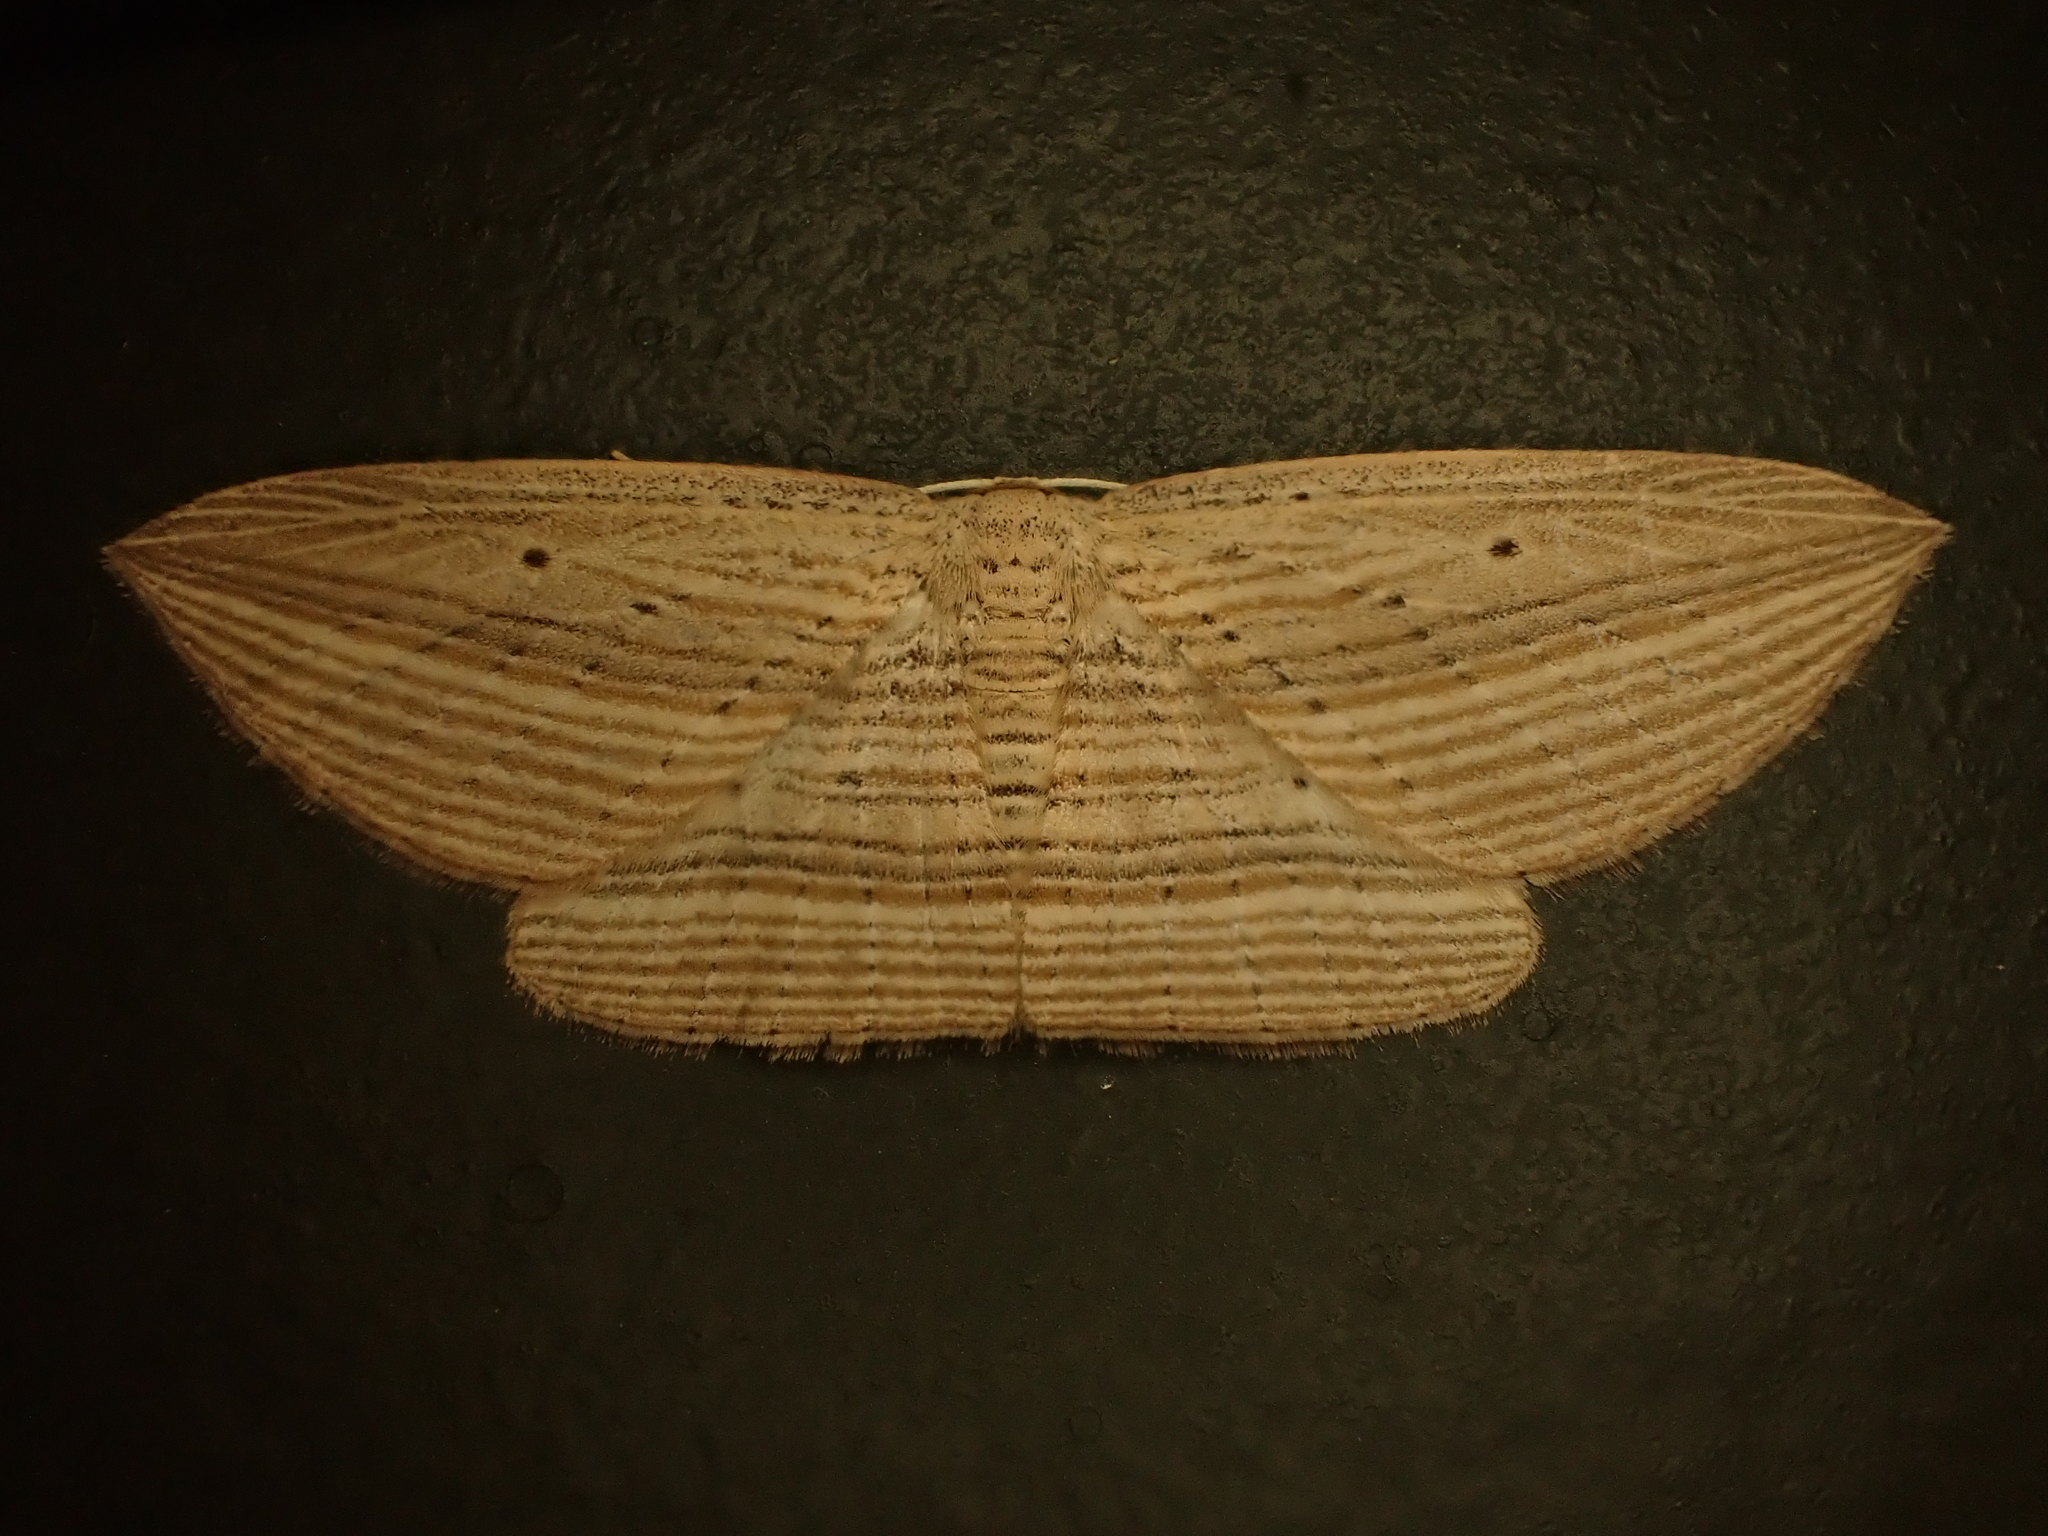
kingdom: Animalia
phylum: Arthropoda
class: Insecta
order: Lepidoptera
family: Geometridae
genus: Epiphryne
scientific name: Epiphryne verriculata
